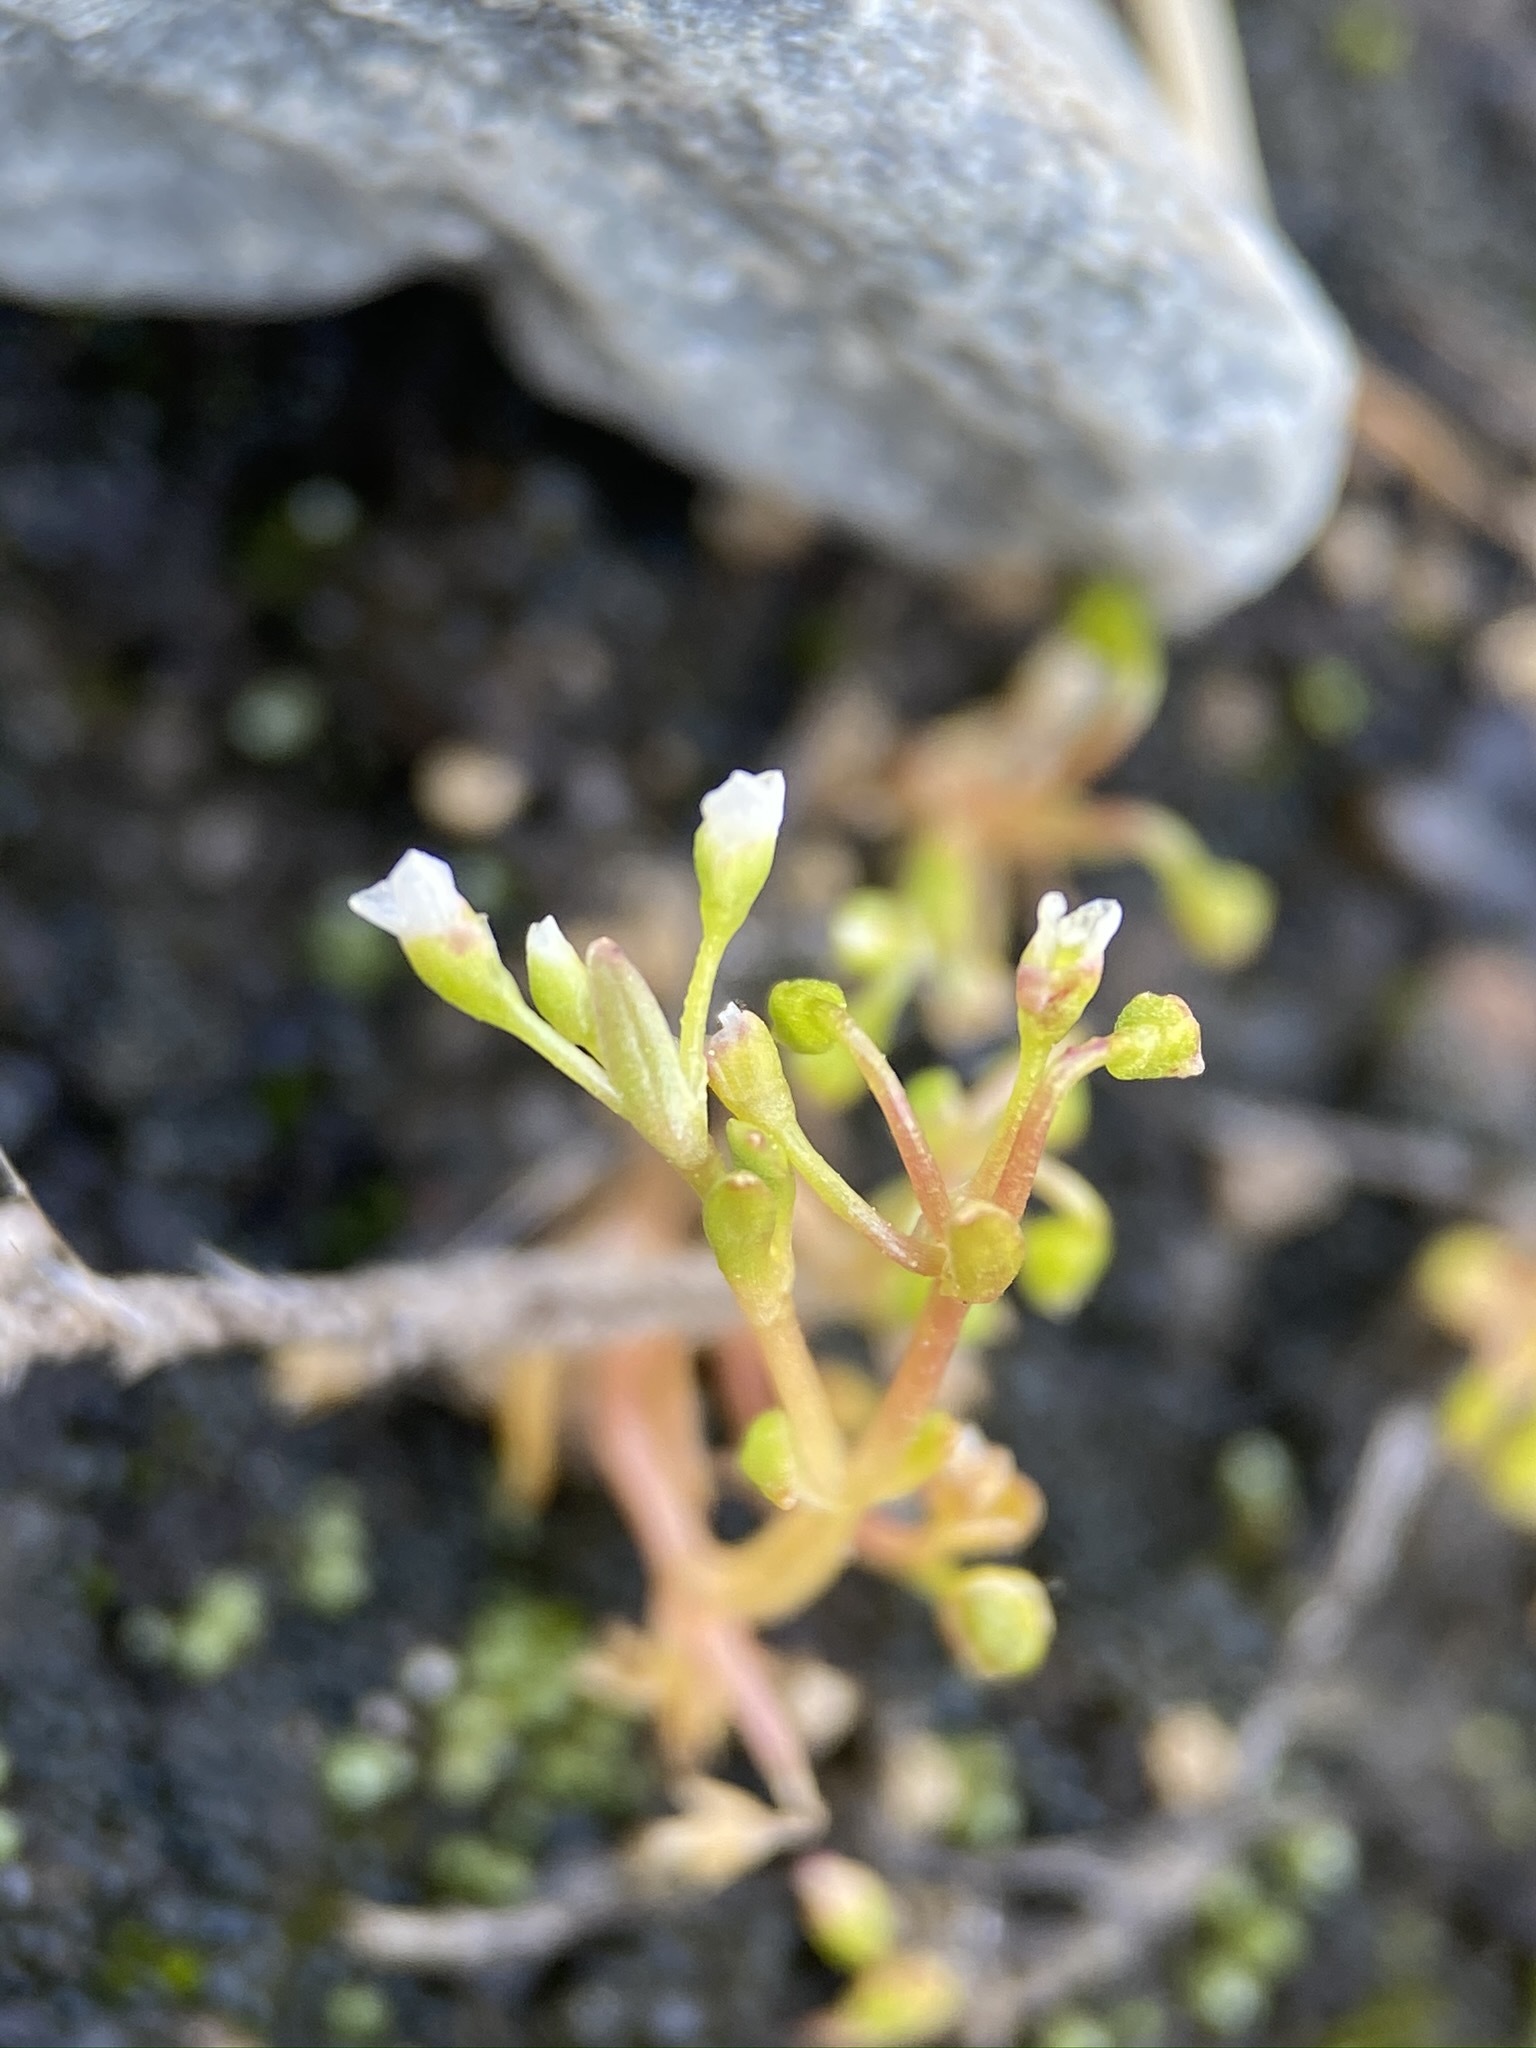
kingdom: Plantae
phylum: Tracheophyta
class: Magnoliopsida
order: Caryophyllales
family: Montiaceae
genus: Montia
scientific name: Montia fontana
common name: Blinks
